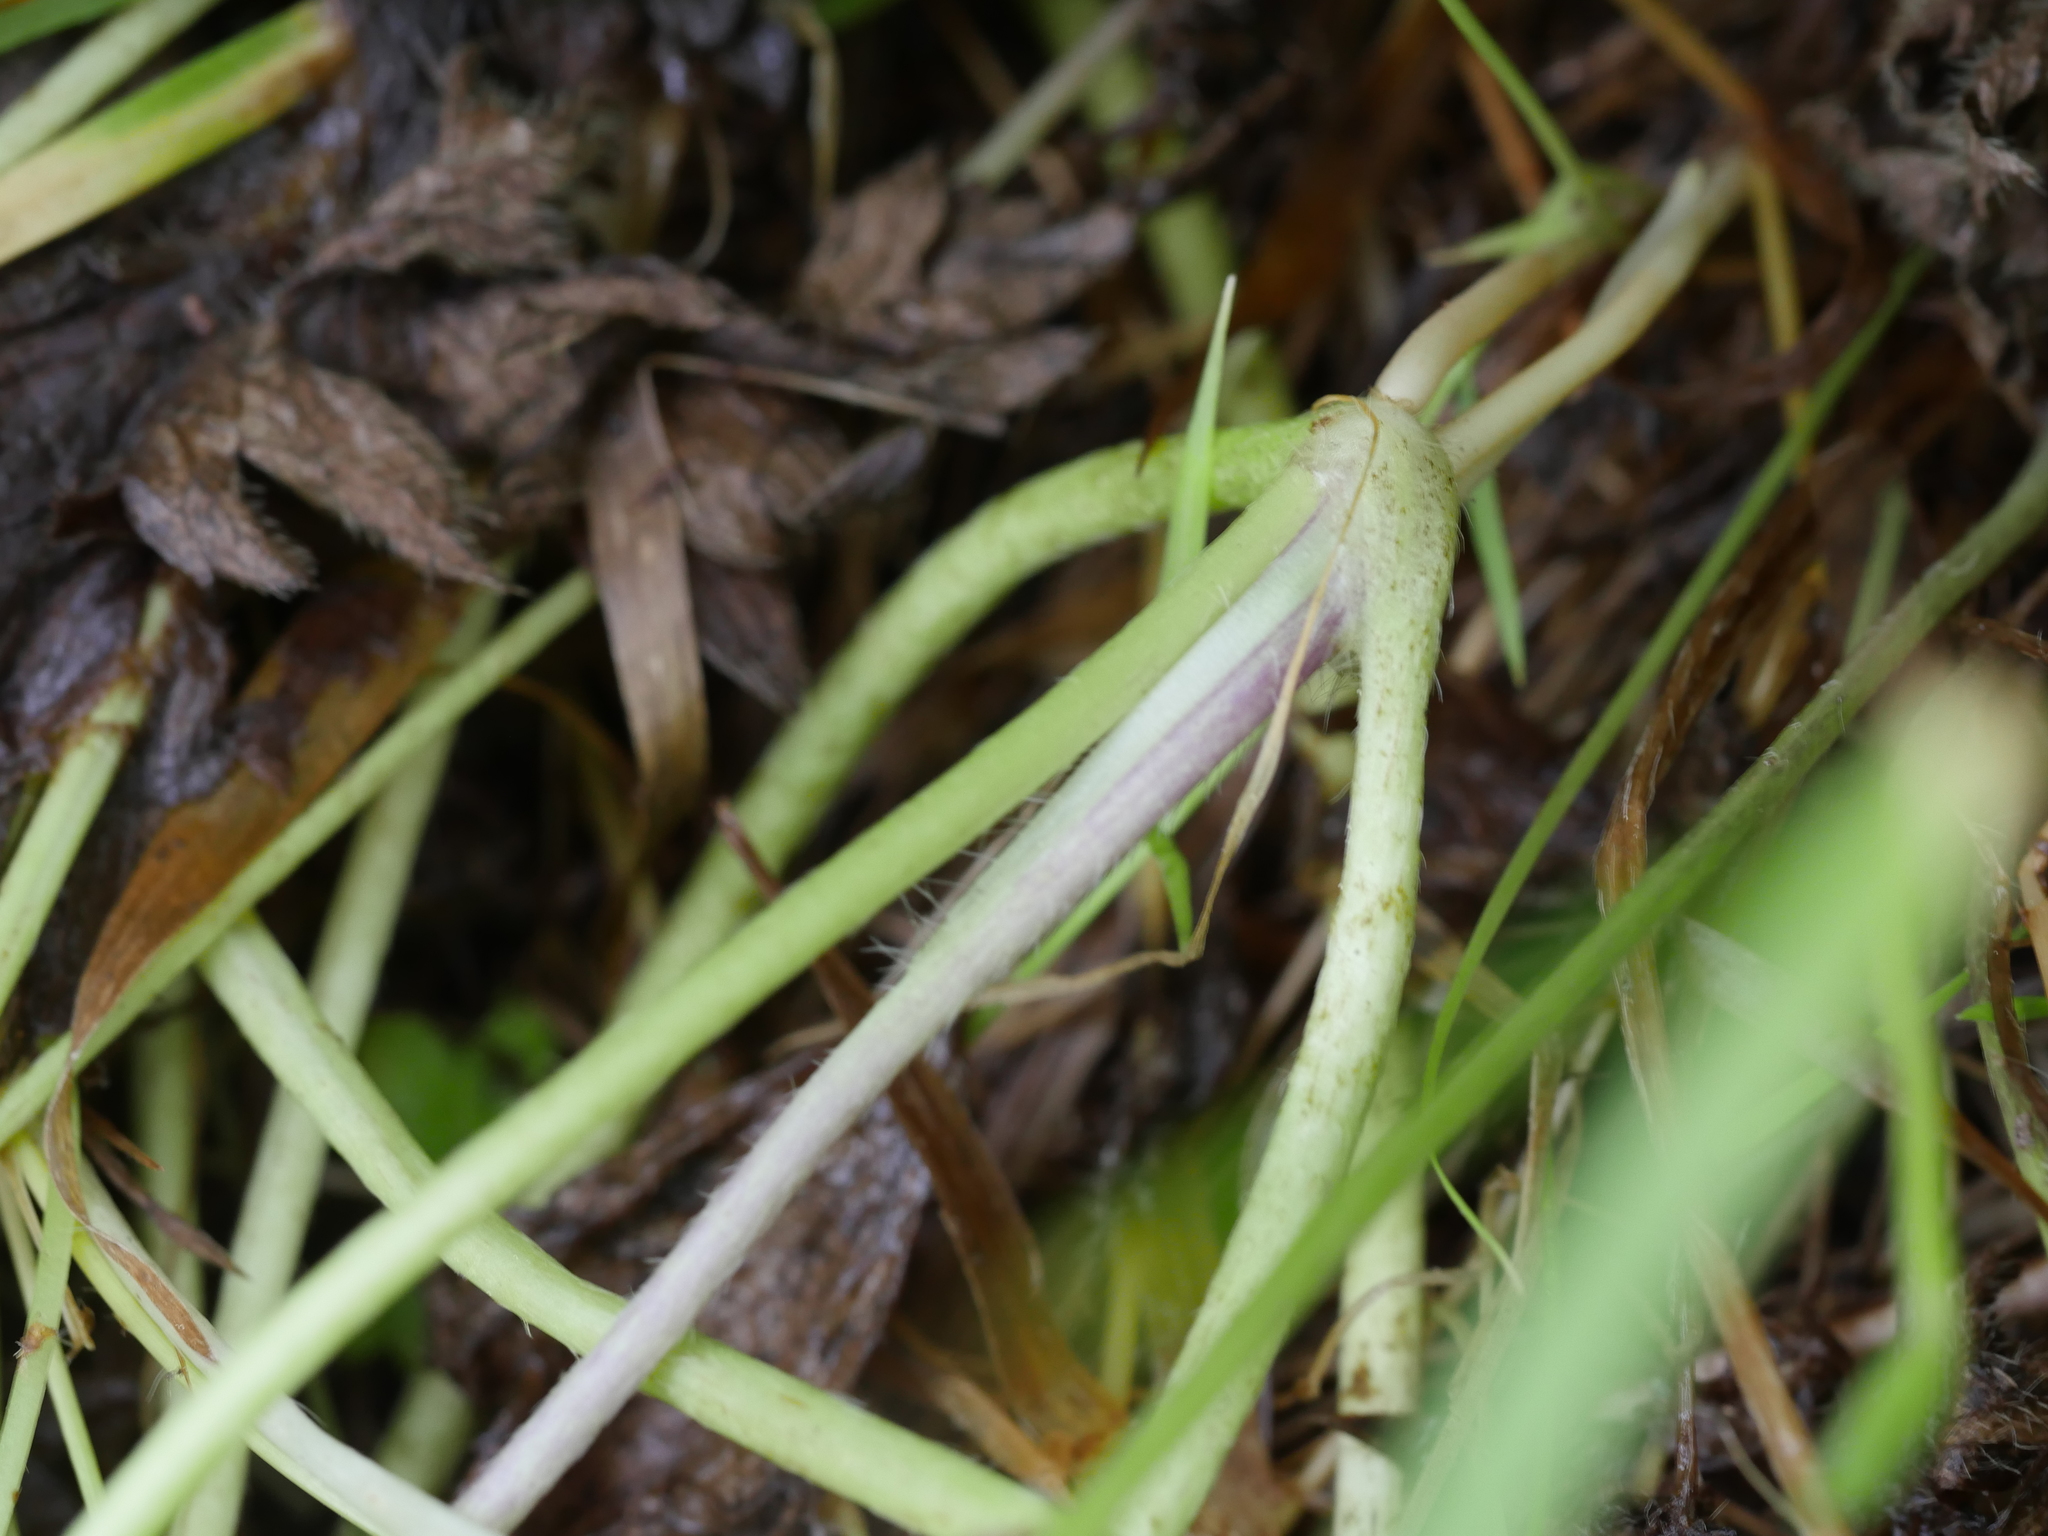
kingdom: Plantae
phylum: Tracheophyta
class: Magnoliopsida
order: Ranunculales
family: Ranunculaceae
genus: Ranunculus
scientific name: Ranunculus repens
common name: Creeping buttercup
